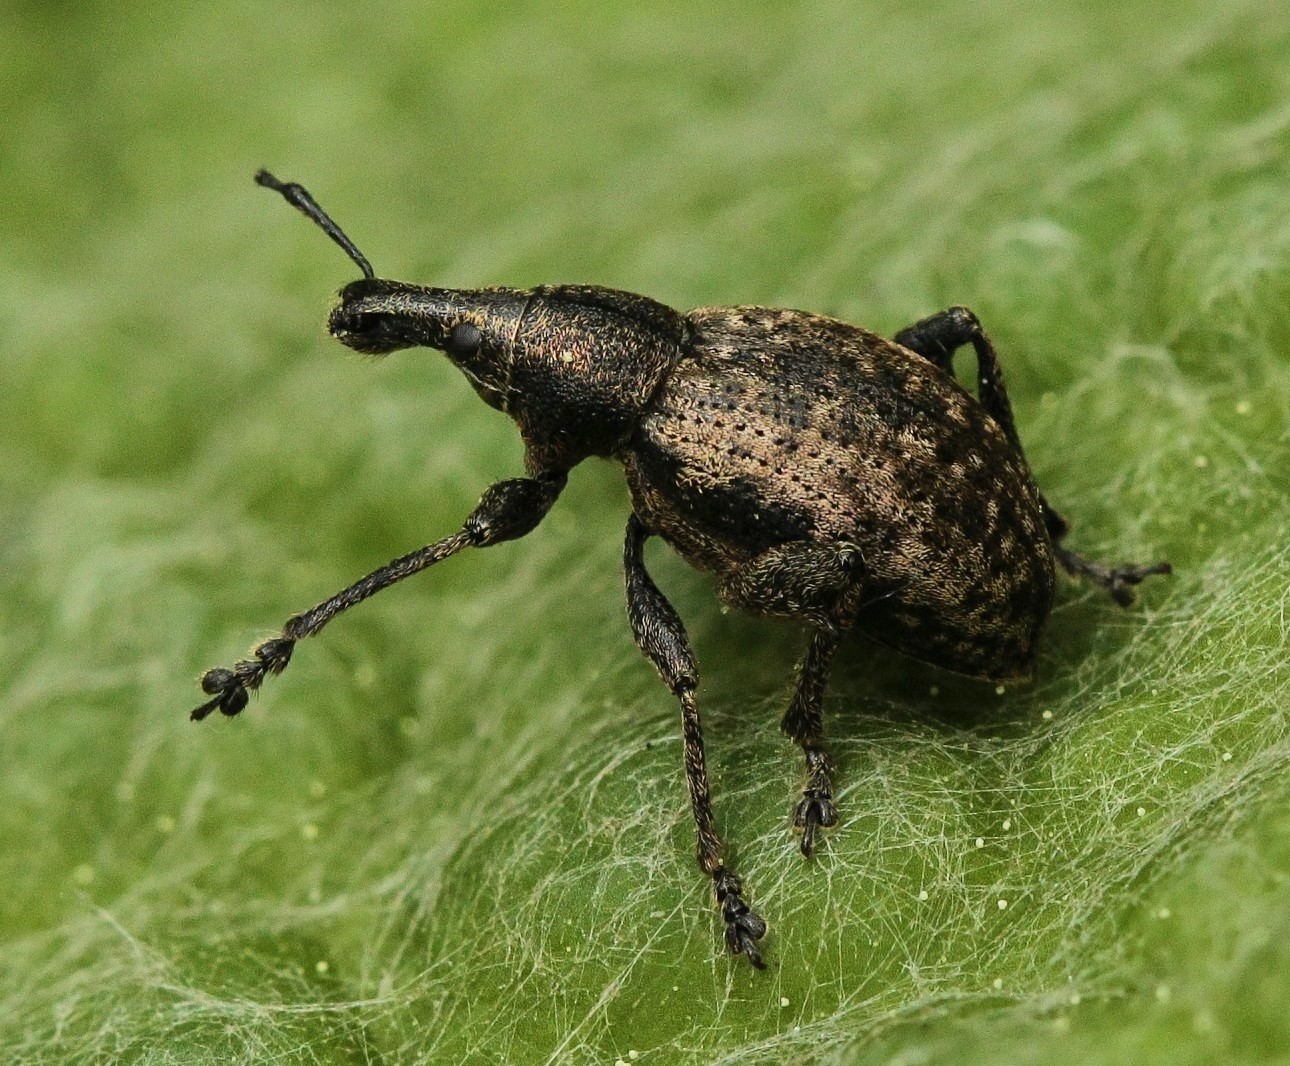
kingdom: Animalia
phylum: Arthropoda
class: Insecta
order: Coleoptera
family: Curculionidae
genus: Nastus
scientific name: Nastus fausti
